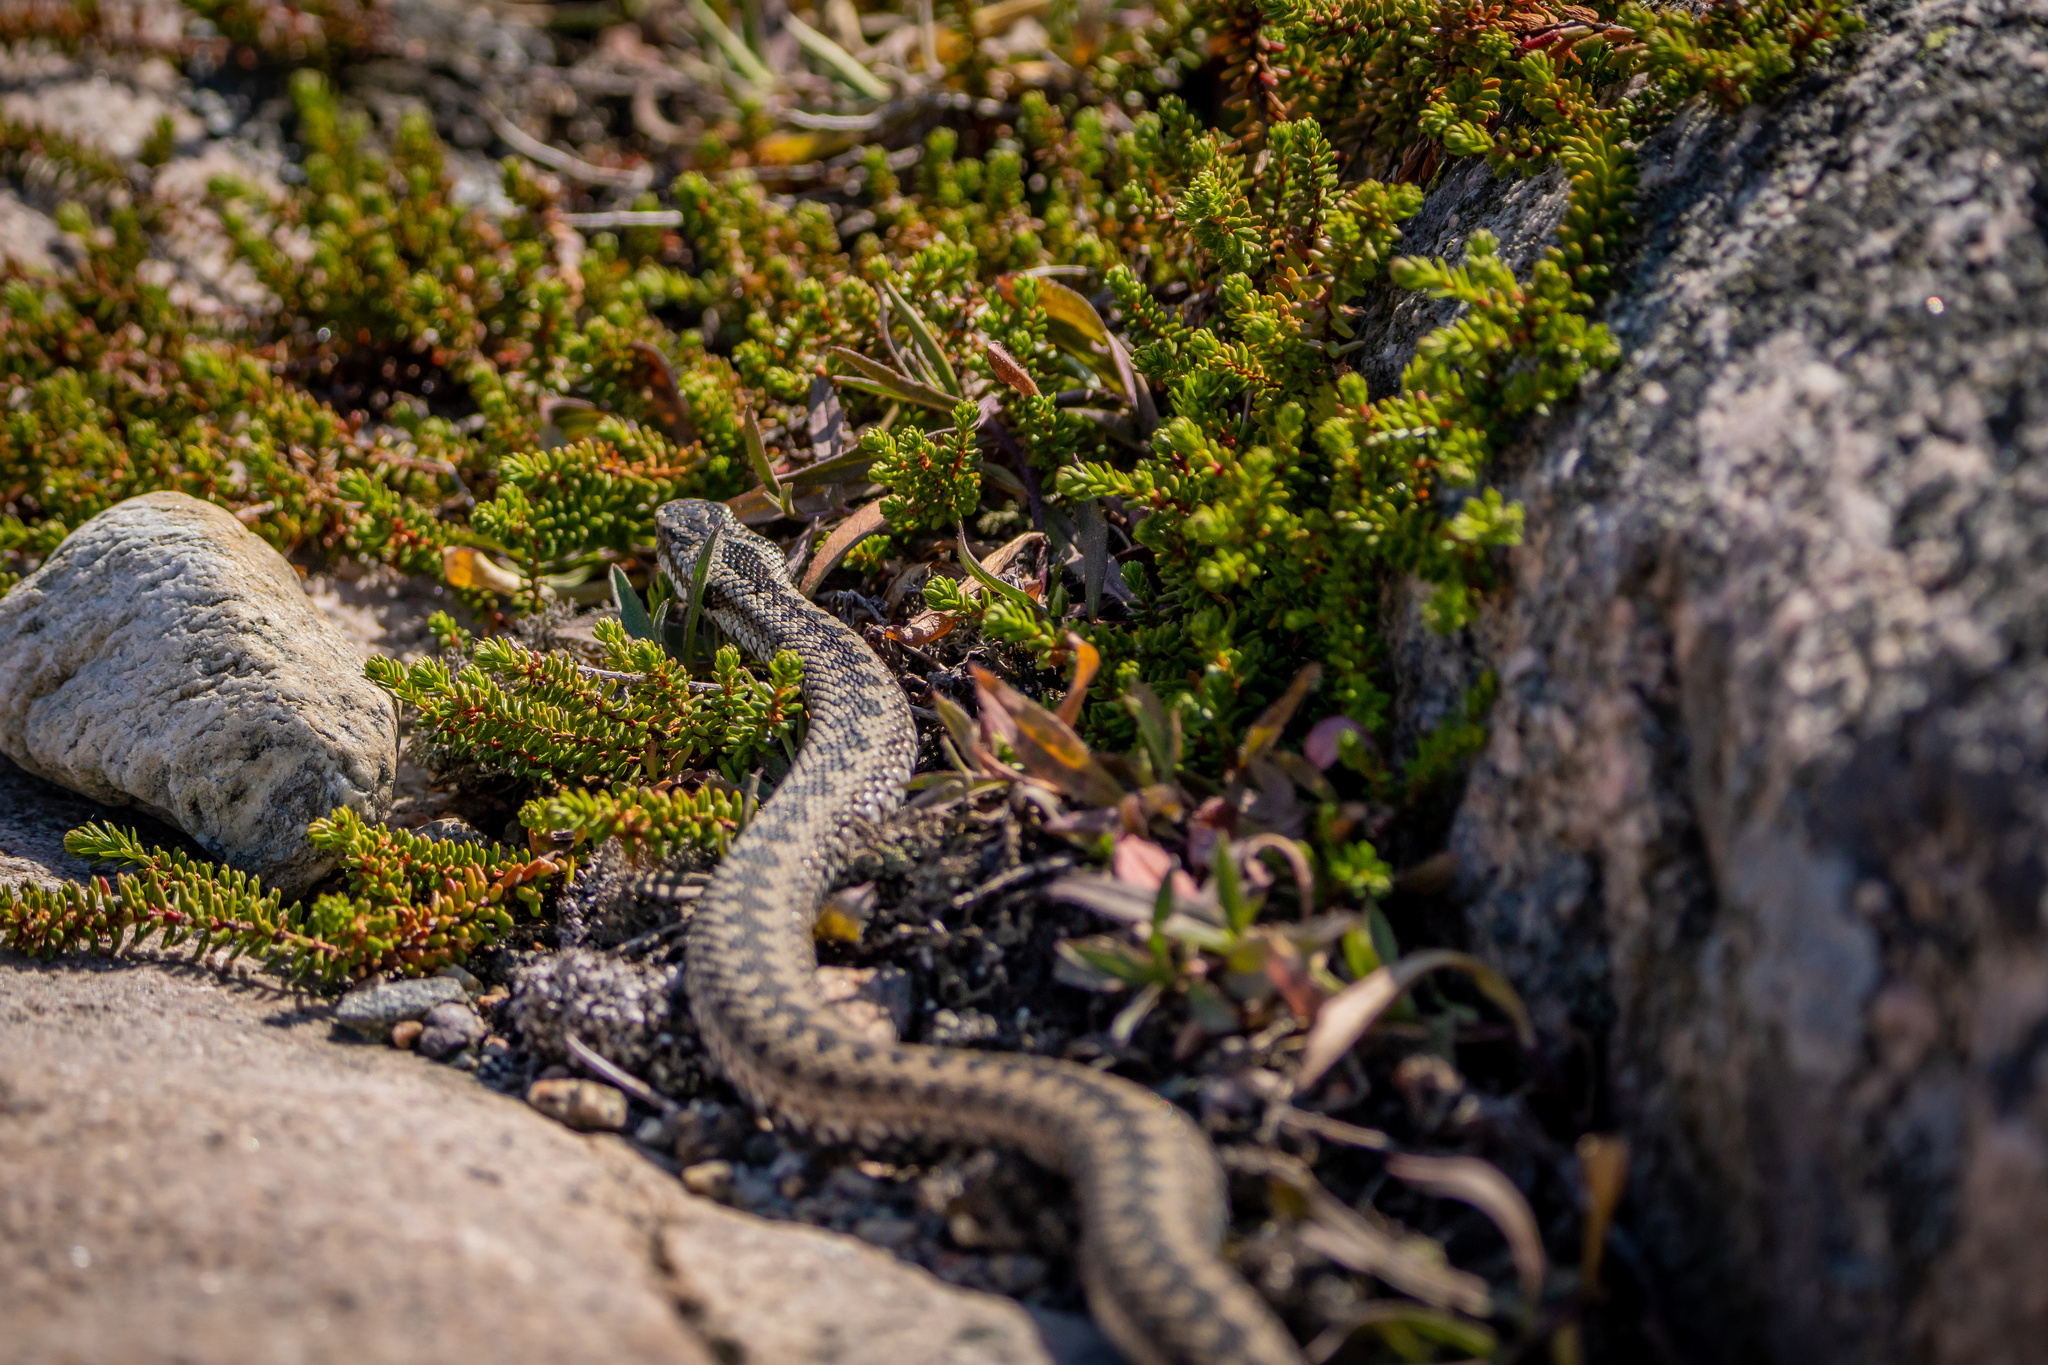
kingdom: Animalia
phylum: Chordata
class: Squamata
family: Viperidae
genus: Vipera
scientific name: Vipera berus
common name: Adder
